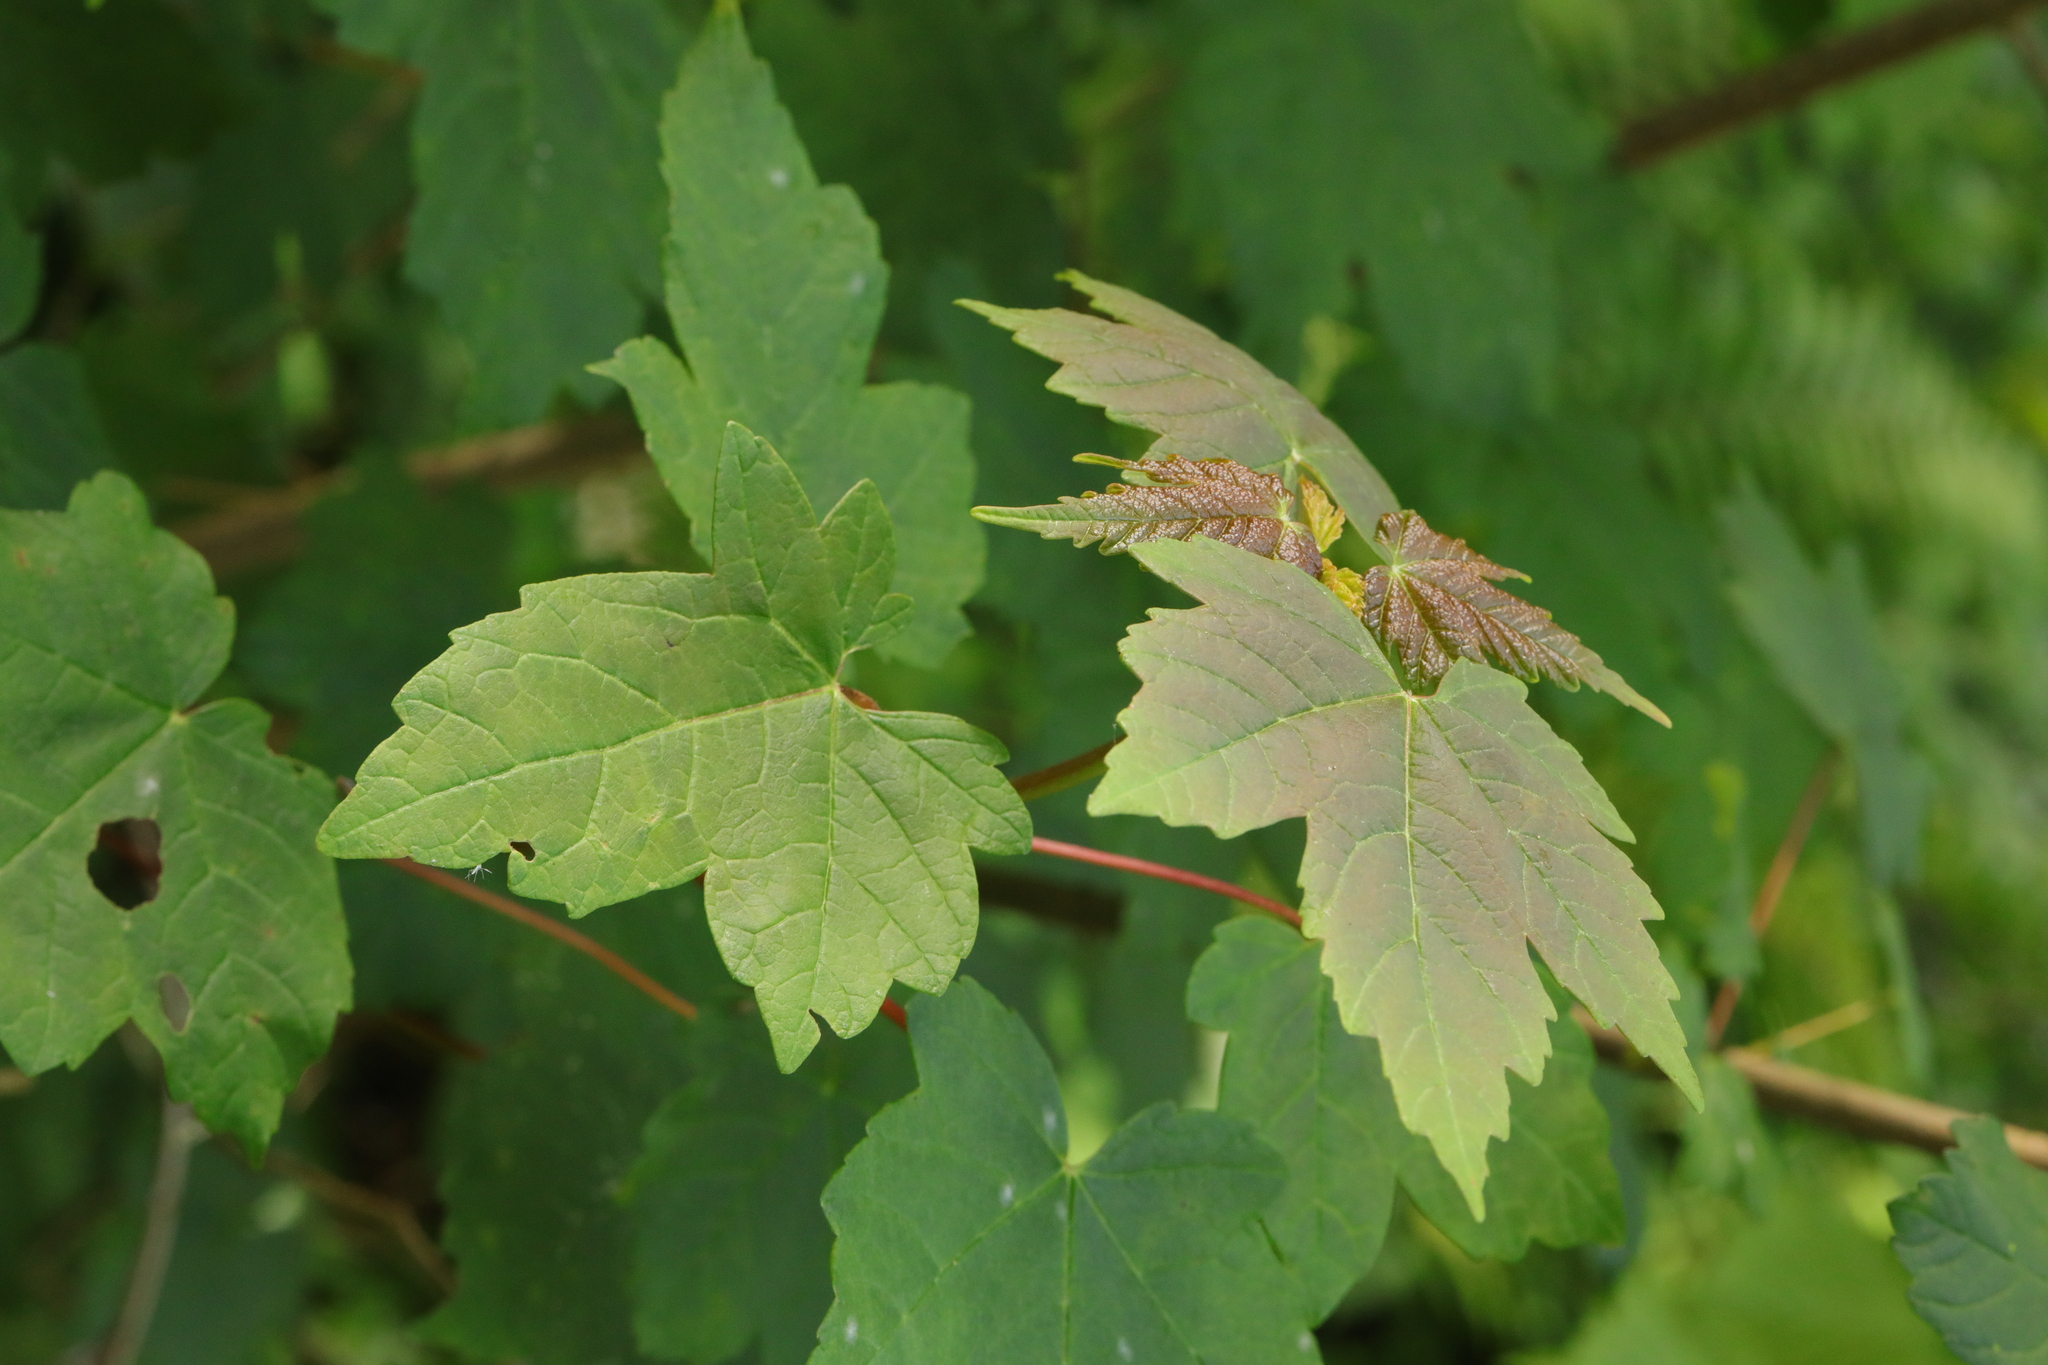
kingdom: Plantae
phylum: Tracheophyta
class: Magnoliopsida
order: Sapindales
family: Sapindaceae
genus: Acer
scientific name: Acer pseudoplatanus
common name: Sycamore
